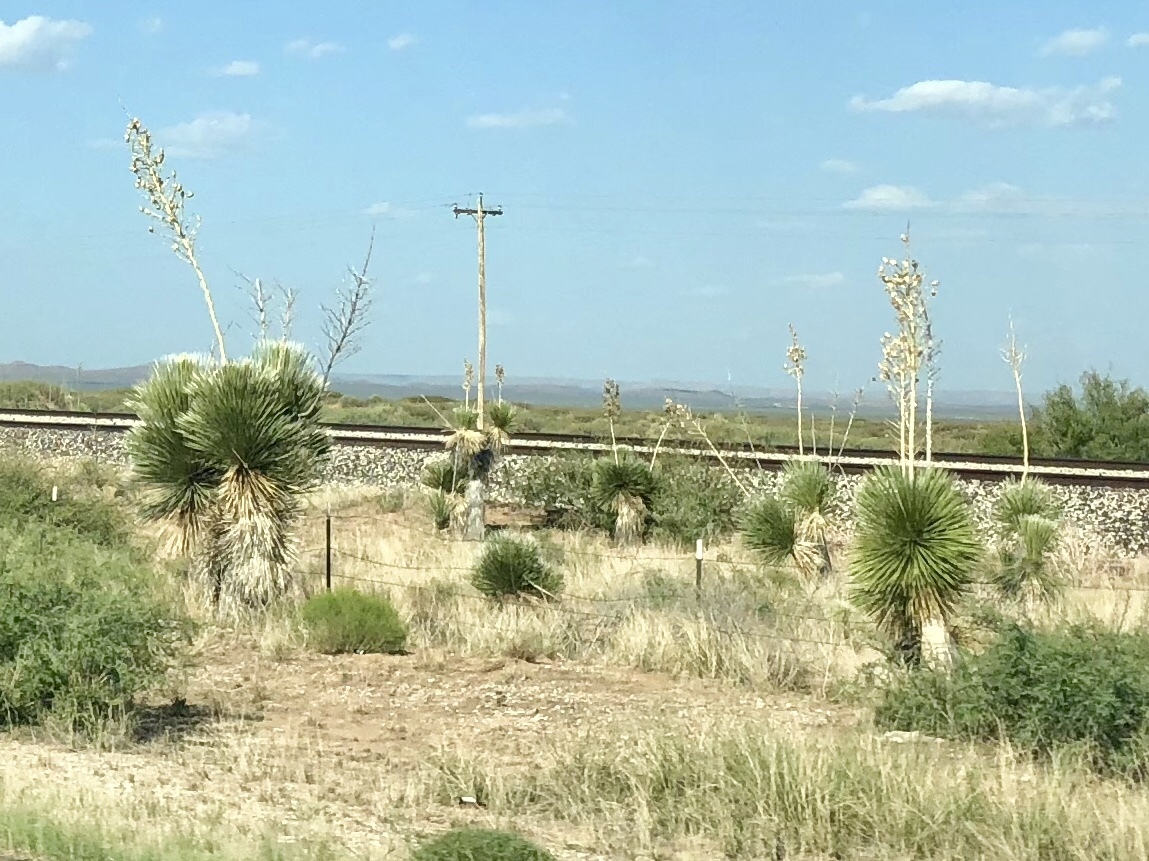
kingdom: Plantae
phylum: Tracheophyta
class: Liliopsida
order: Asparagales
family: Asparagaceae
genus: Yucca
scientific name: Yucca elata
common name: Palmella
